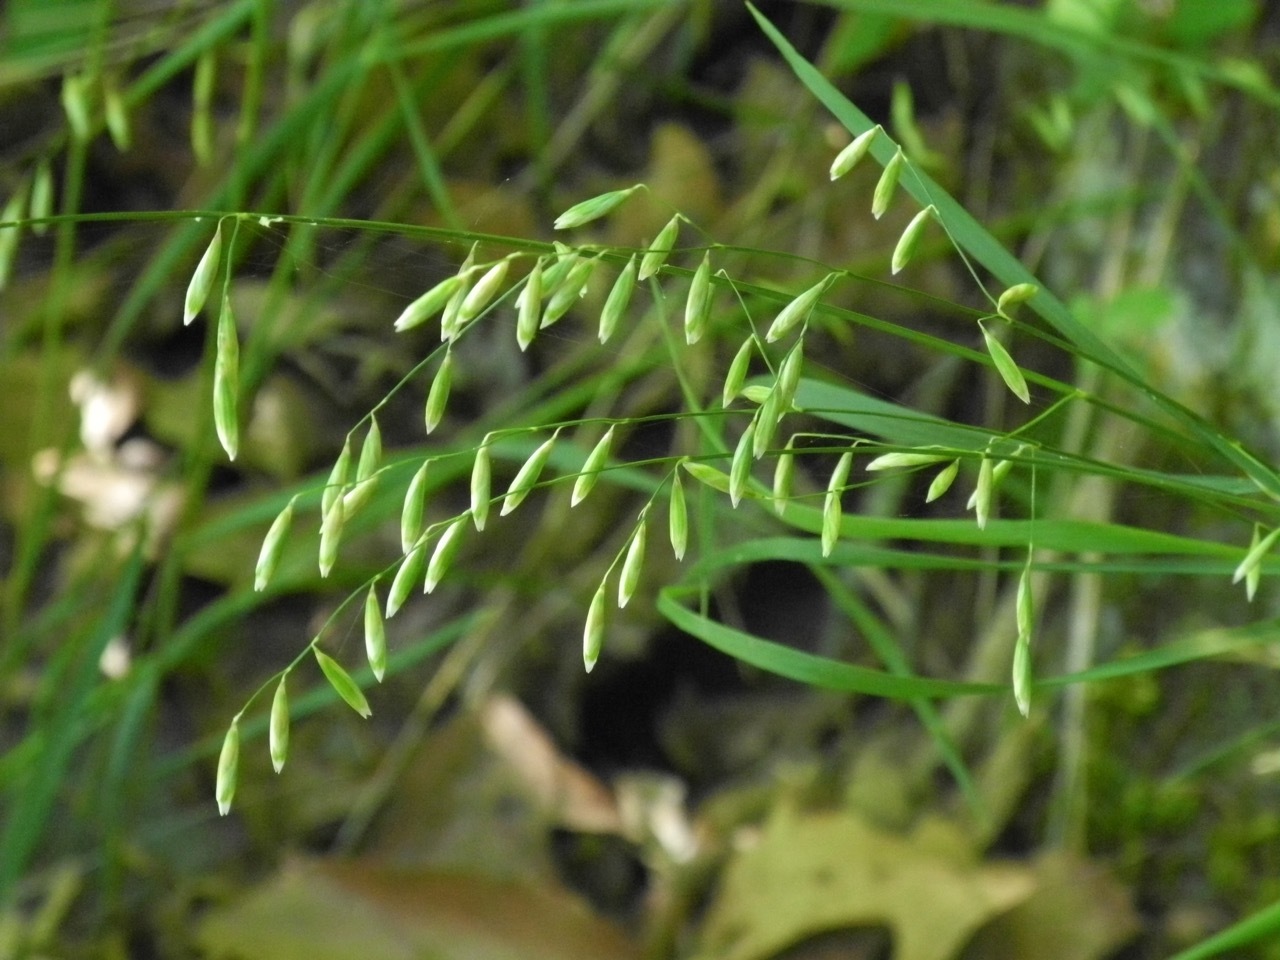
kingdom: Plantae
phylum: Tracheophyta
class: Liliopsida
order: Poales
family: Poaceae
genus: Melica
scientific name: Melica mutica
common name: Two-flower melic
